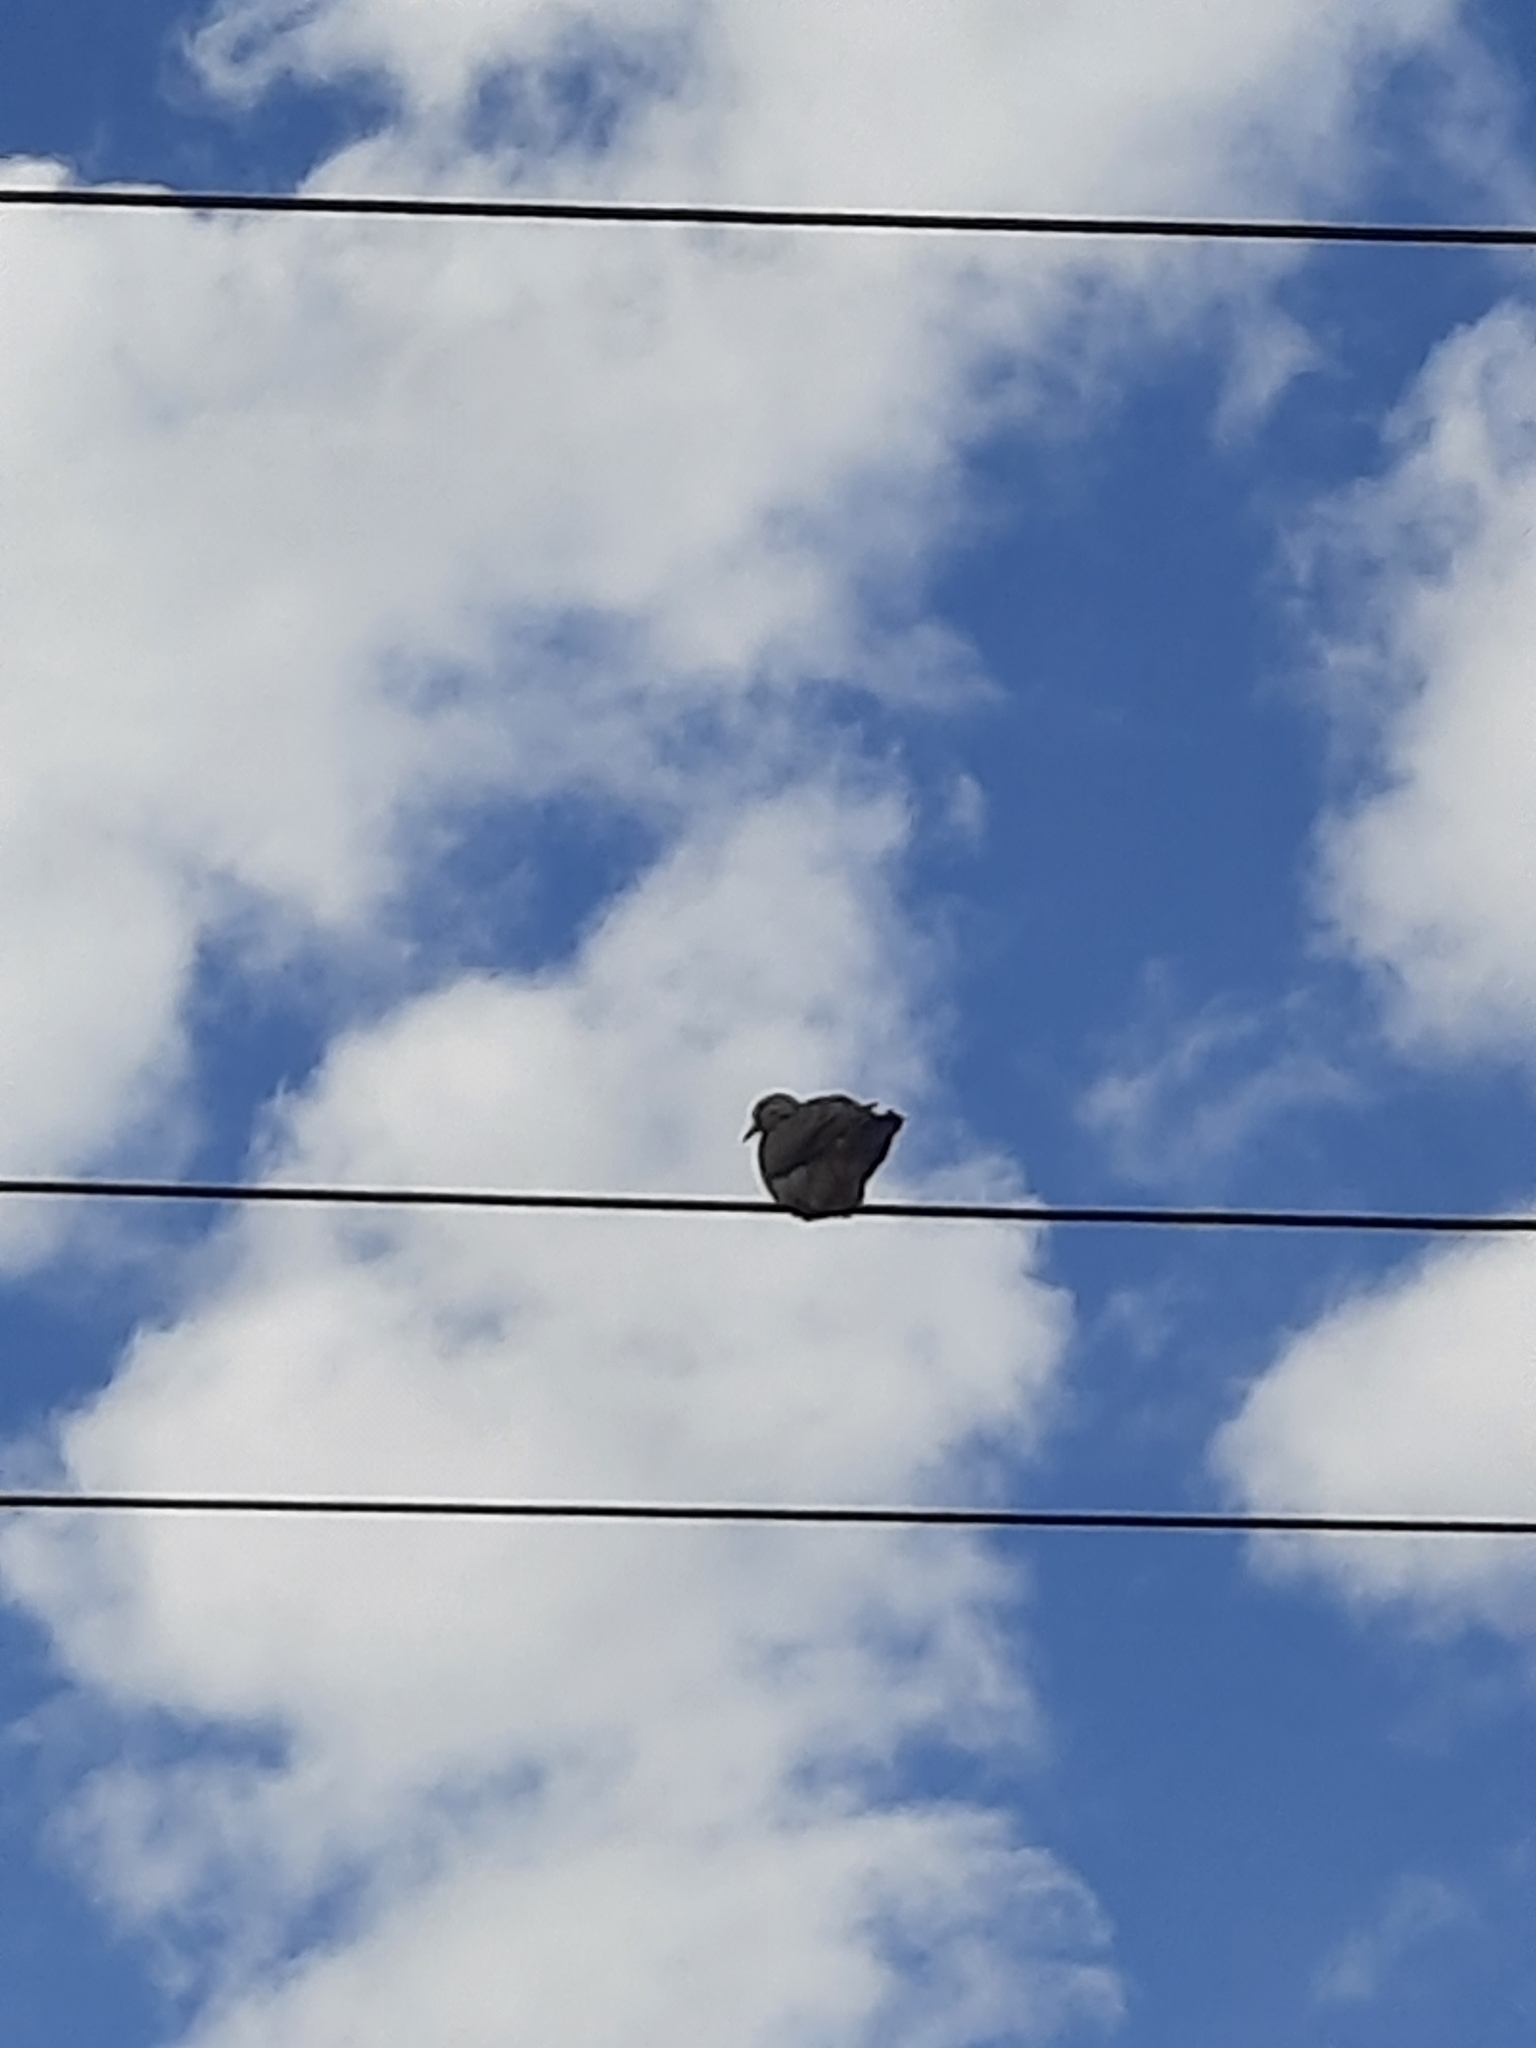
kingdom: Animalia
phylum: Chordata
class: Aves
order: Columbiformes
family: Columbidae
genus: Zenaida
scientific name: Zenaida auriculata
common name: Eared dove
